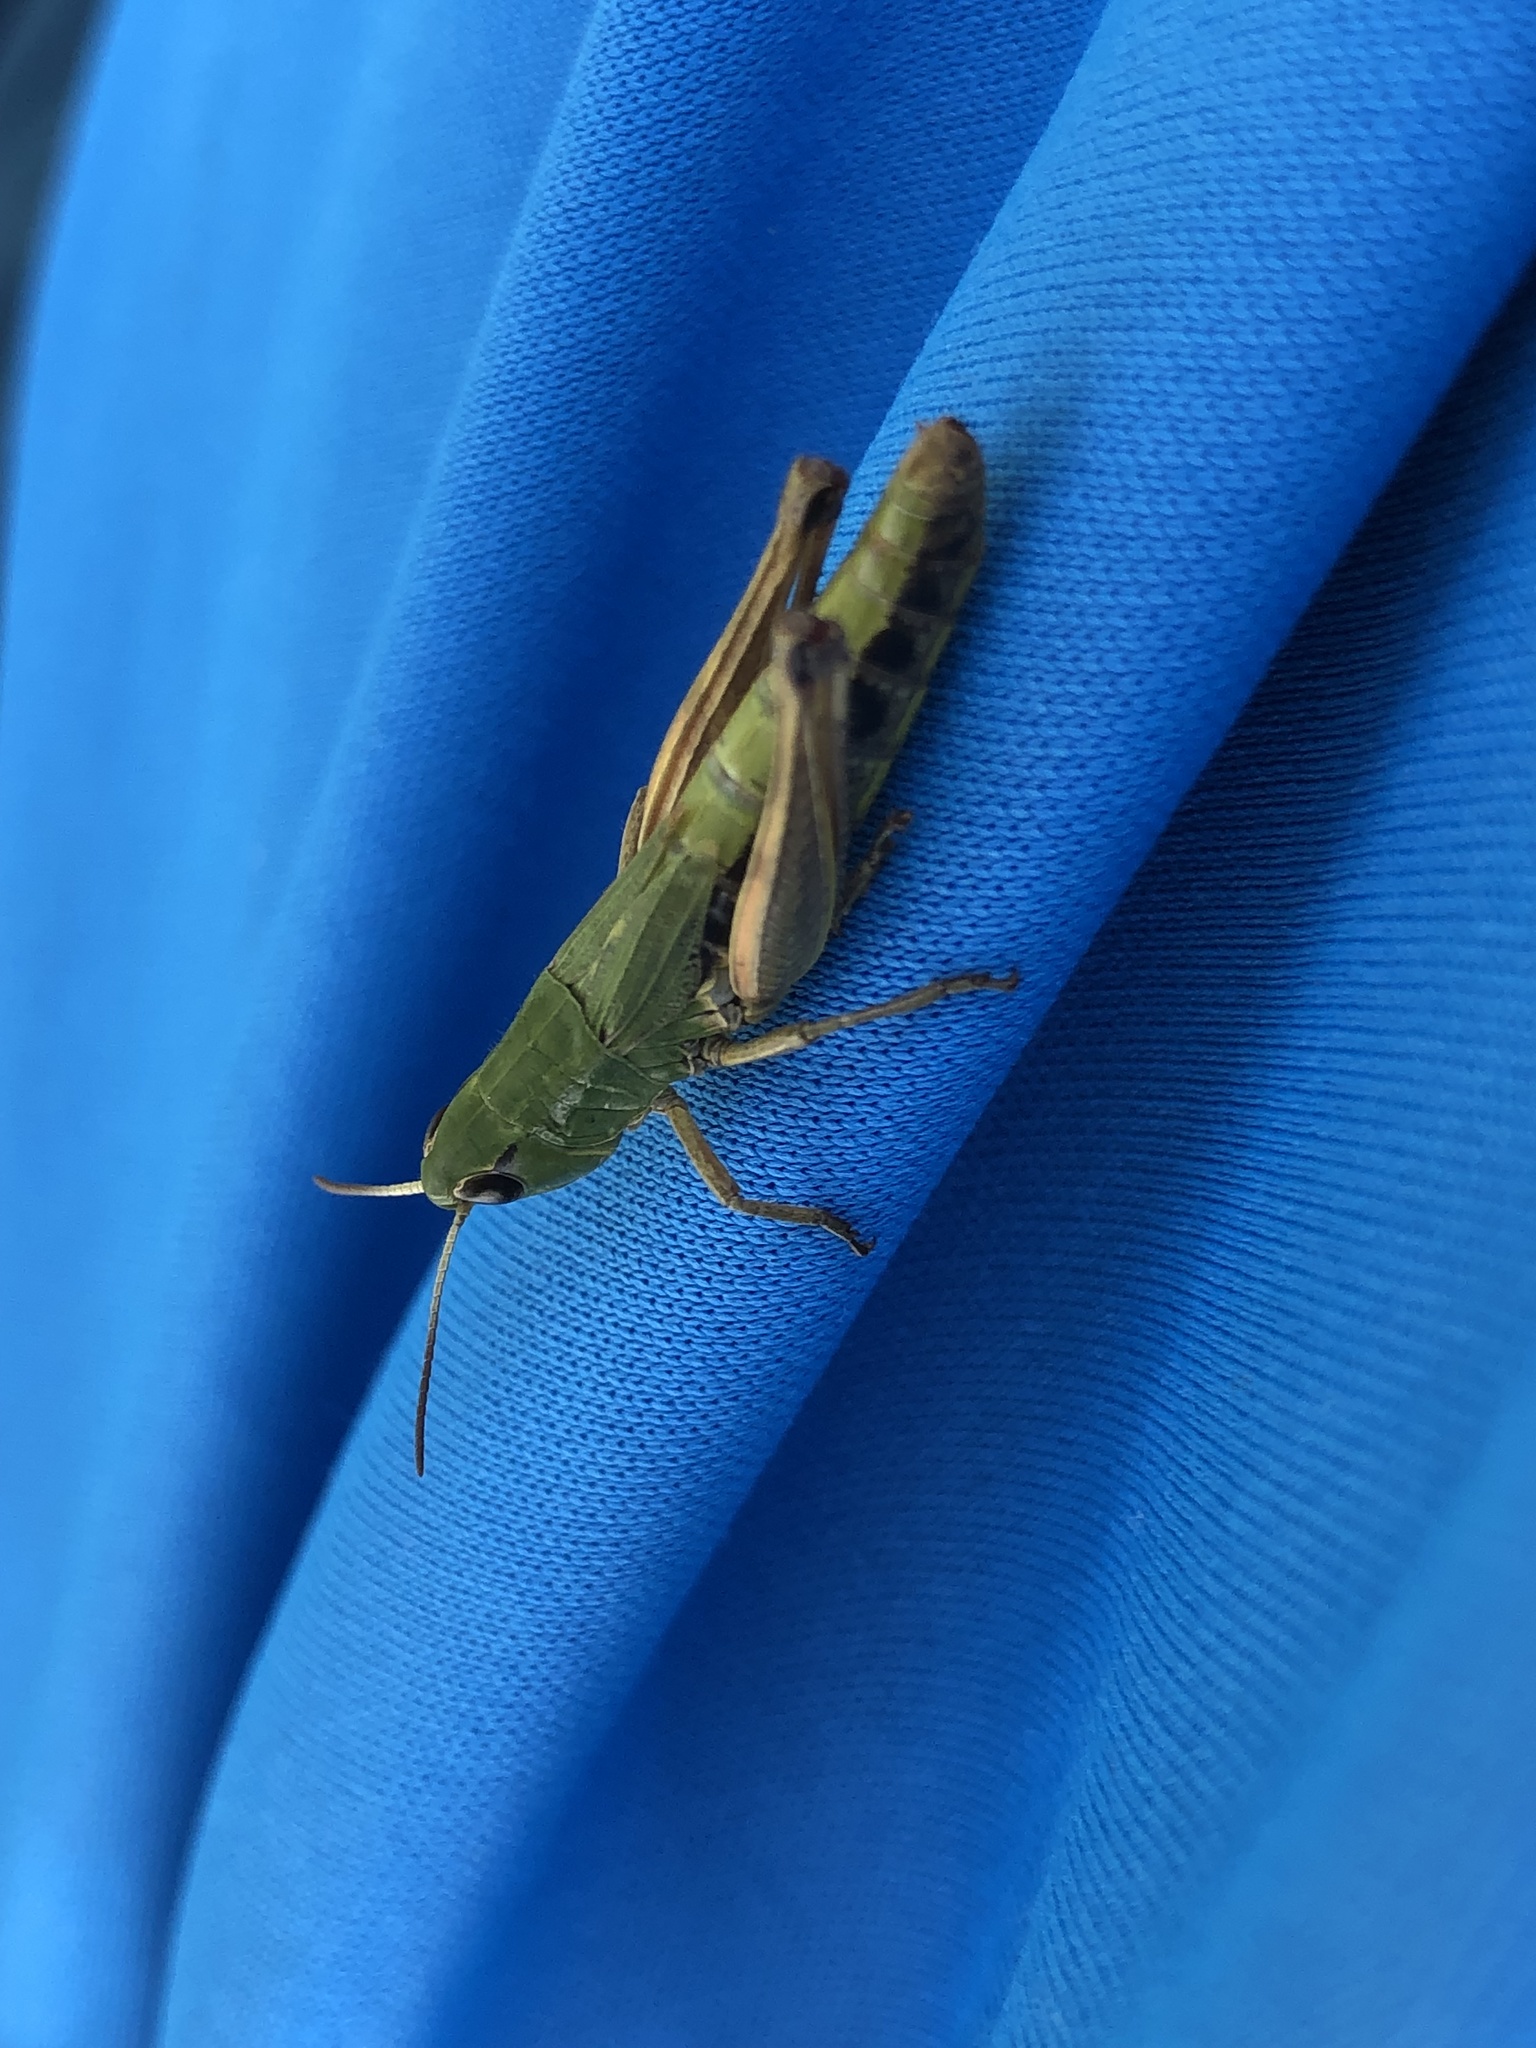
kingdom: Animalia
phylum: Arthropoda
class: Insecta
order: Orthoptera
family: Acrididae
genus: Pseudochorthippus
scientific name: Pseudochorthippus parallelus
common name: Meadow grasshopper
